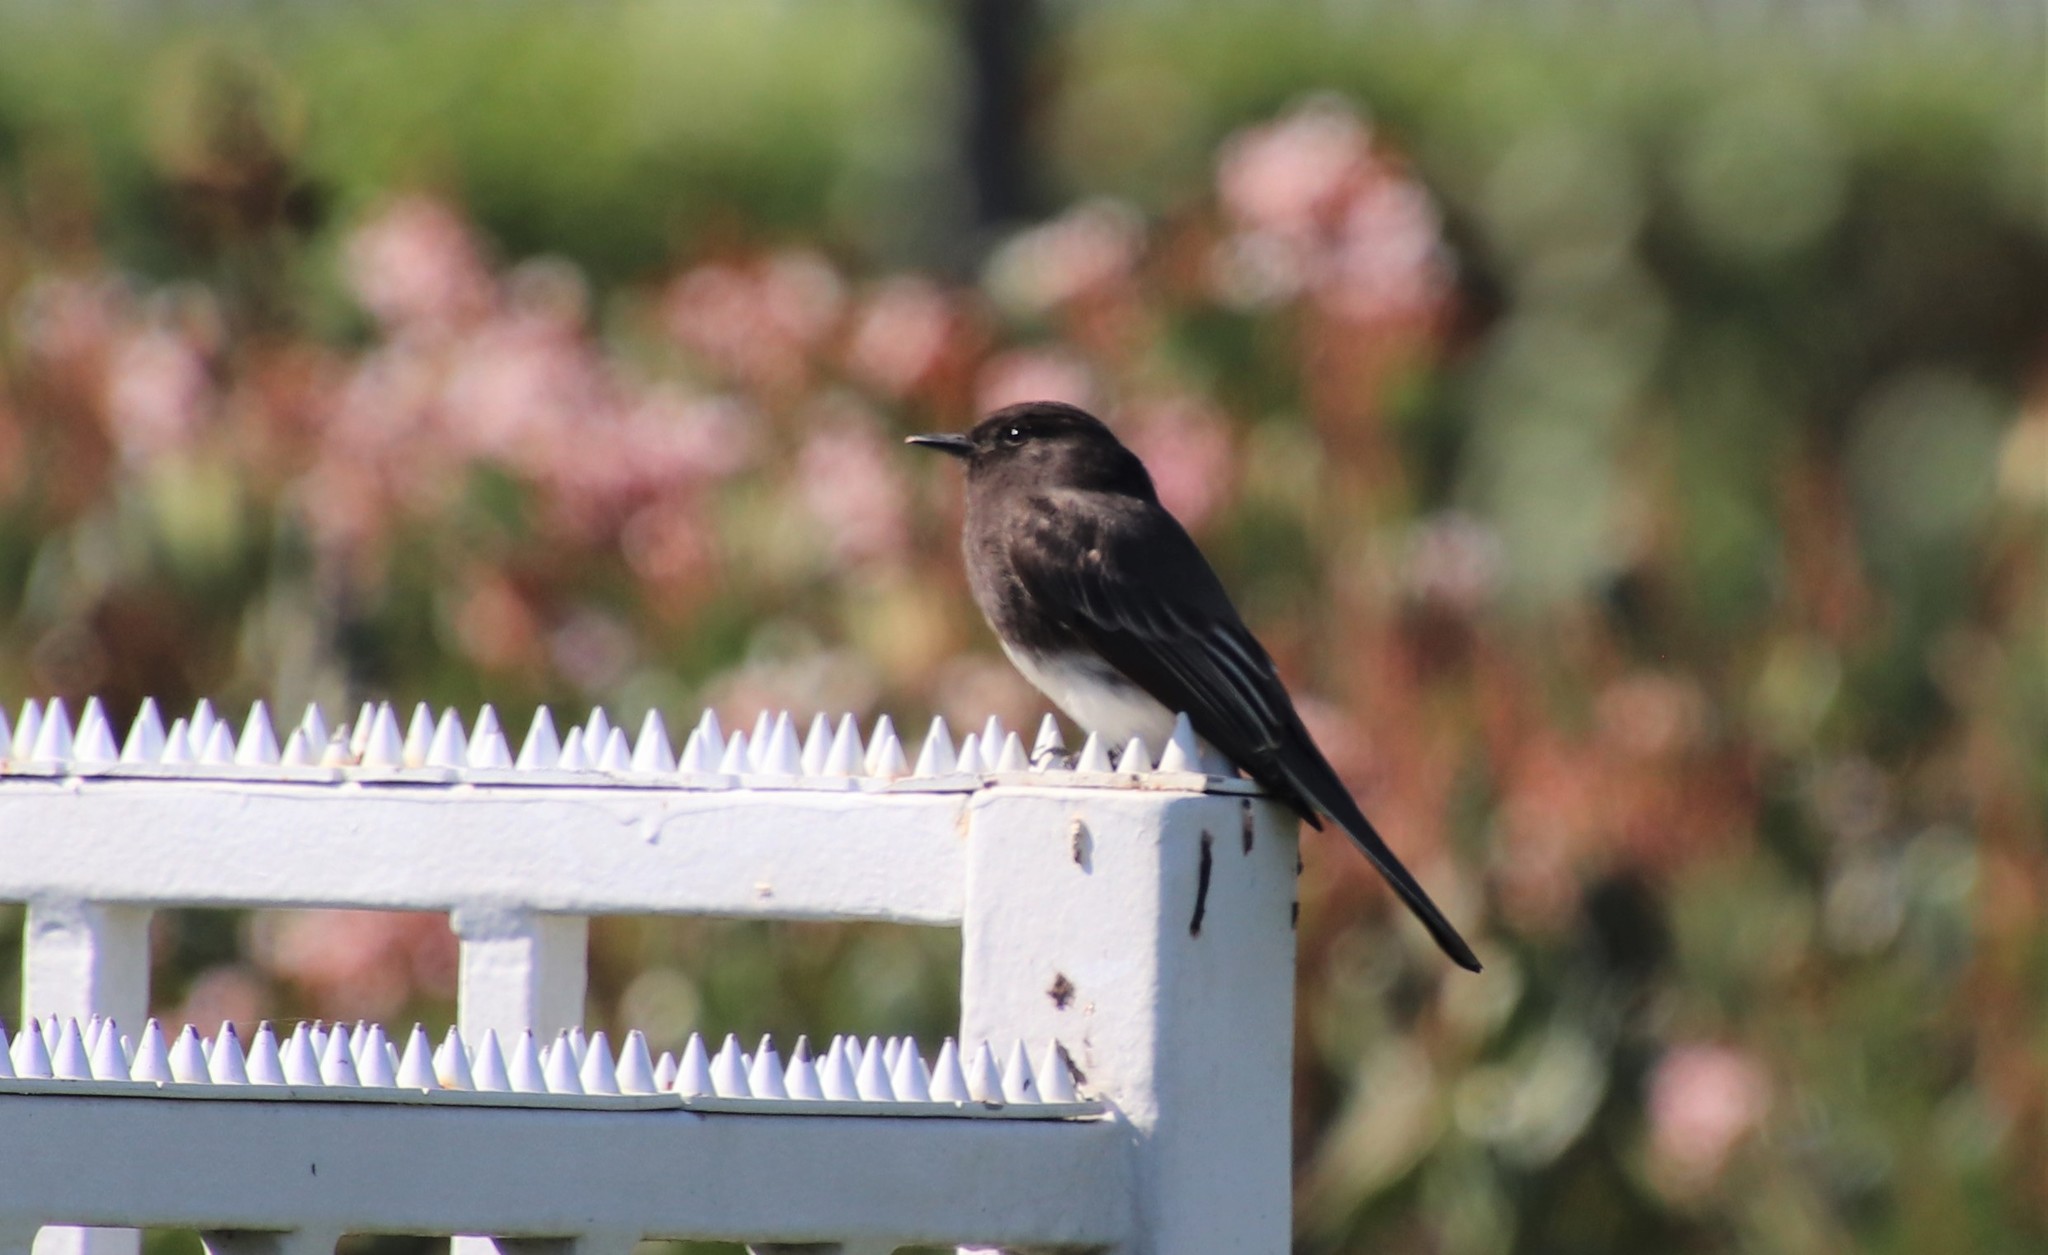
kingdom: Animalia
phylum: Chordata
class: Aves
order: Passeriformes
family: Tyrannidae
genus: Sayornis
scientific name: Sayornis nigricans
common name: Black phoebe
